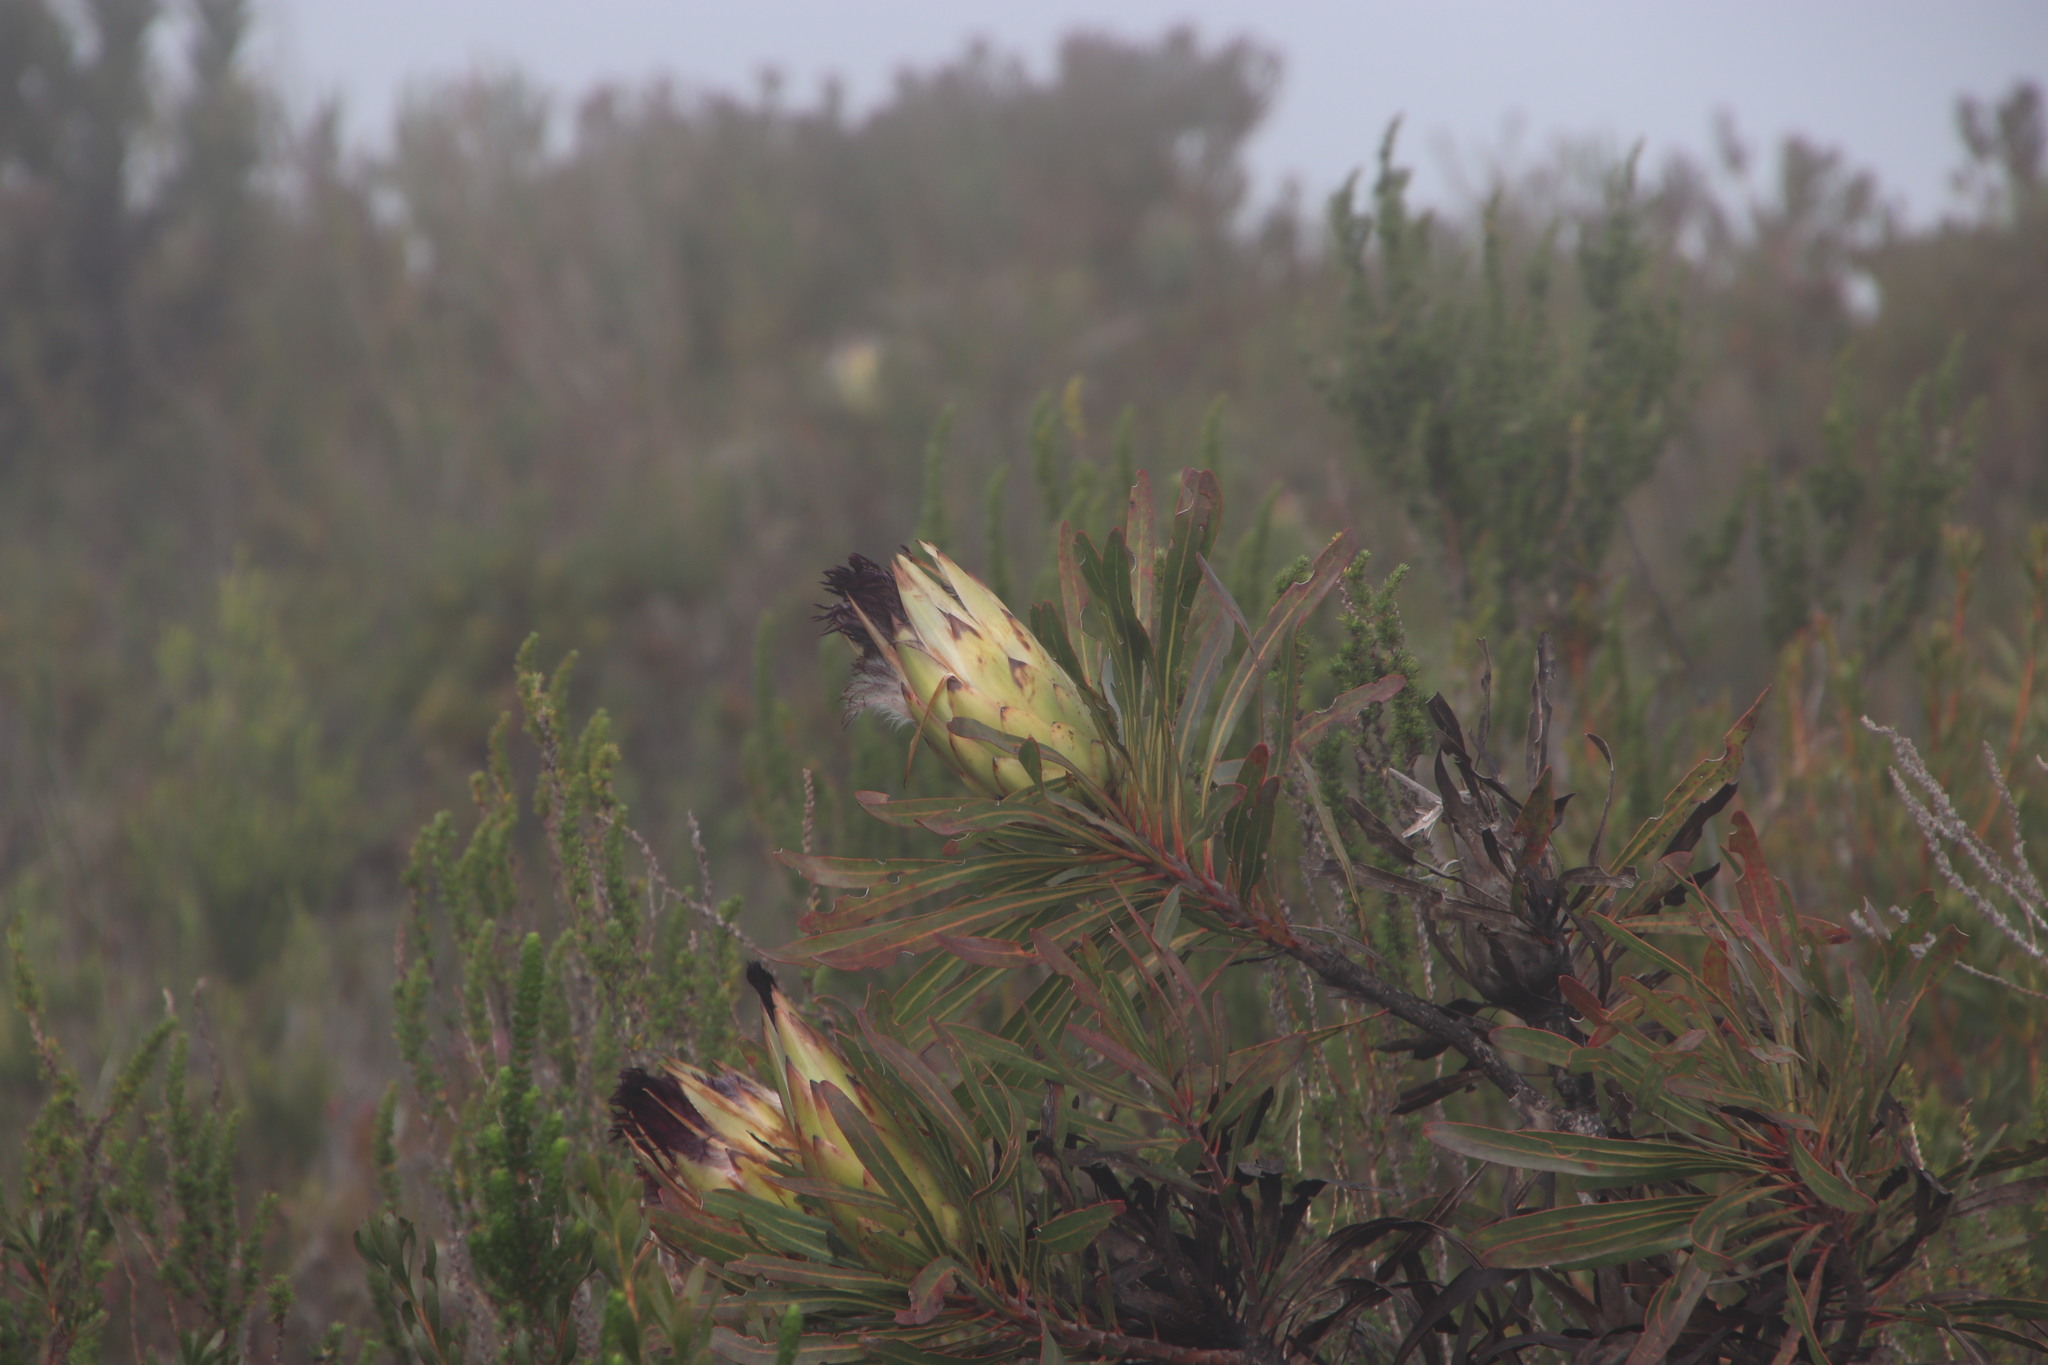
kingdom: Plantae
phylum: Tracheophyta
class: Magnoliopsida
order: Proteales
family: Proteaceae
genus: Protea
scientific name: Protea longifolia
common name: Long-leaf sugarbush
